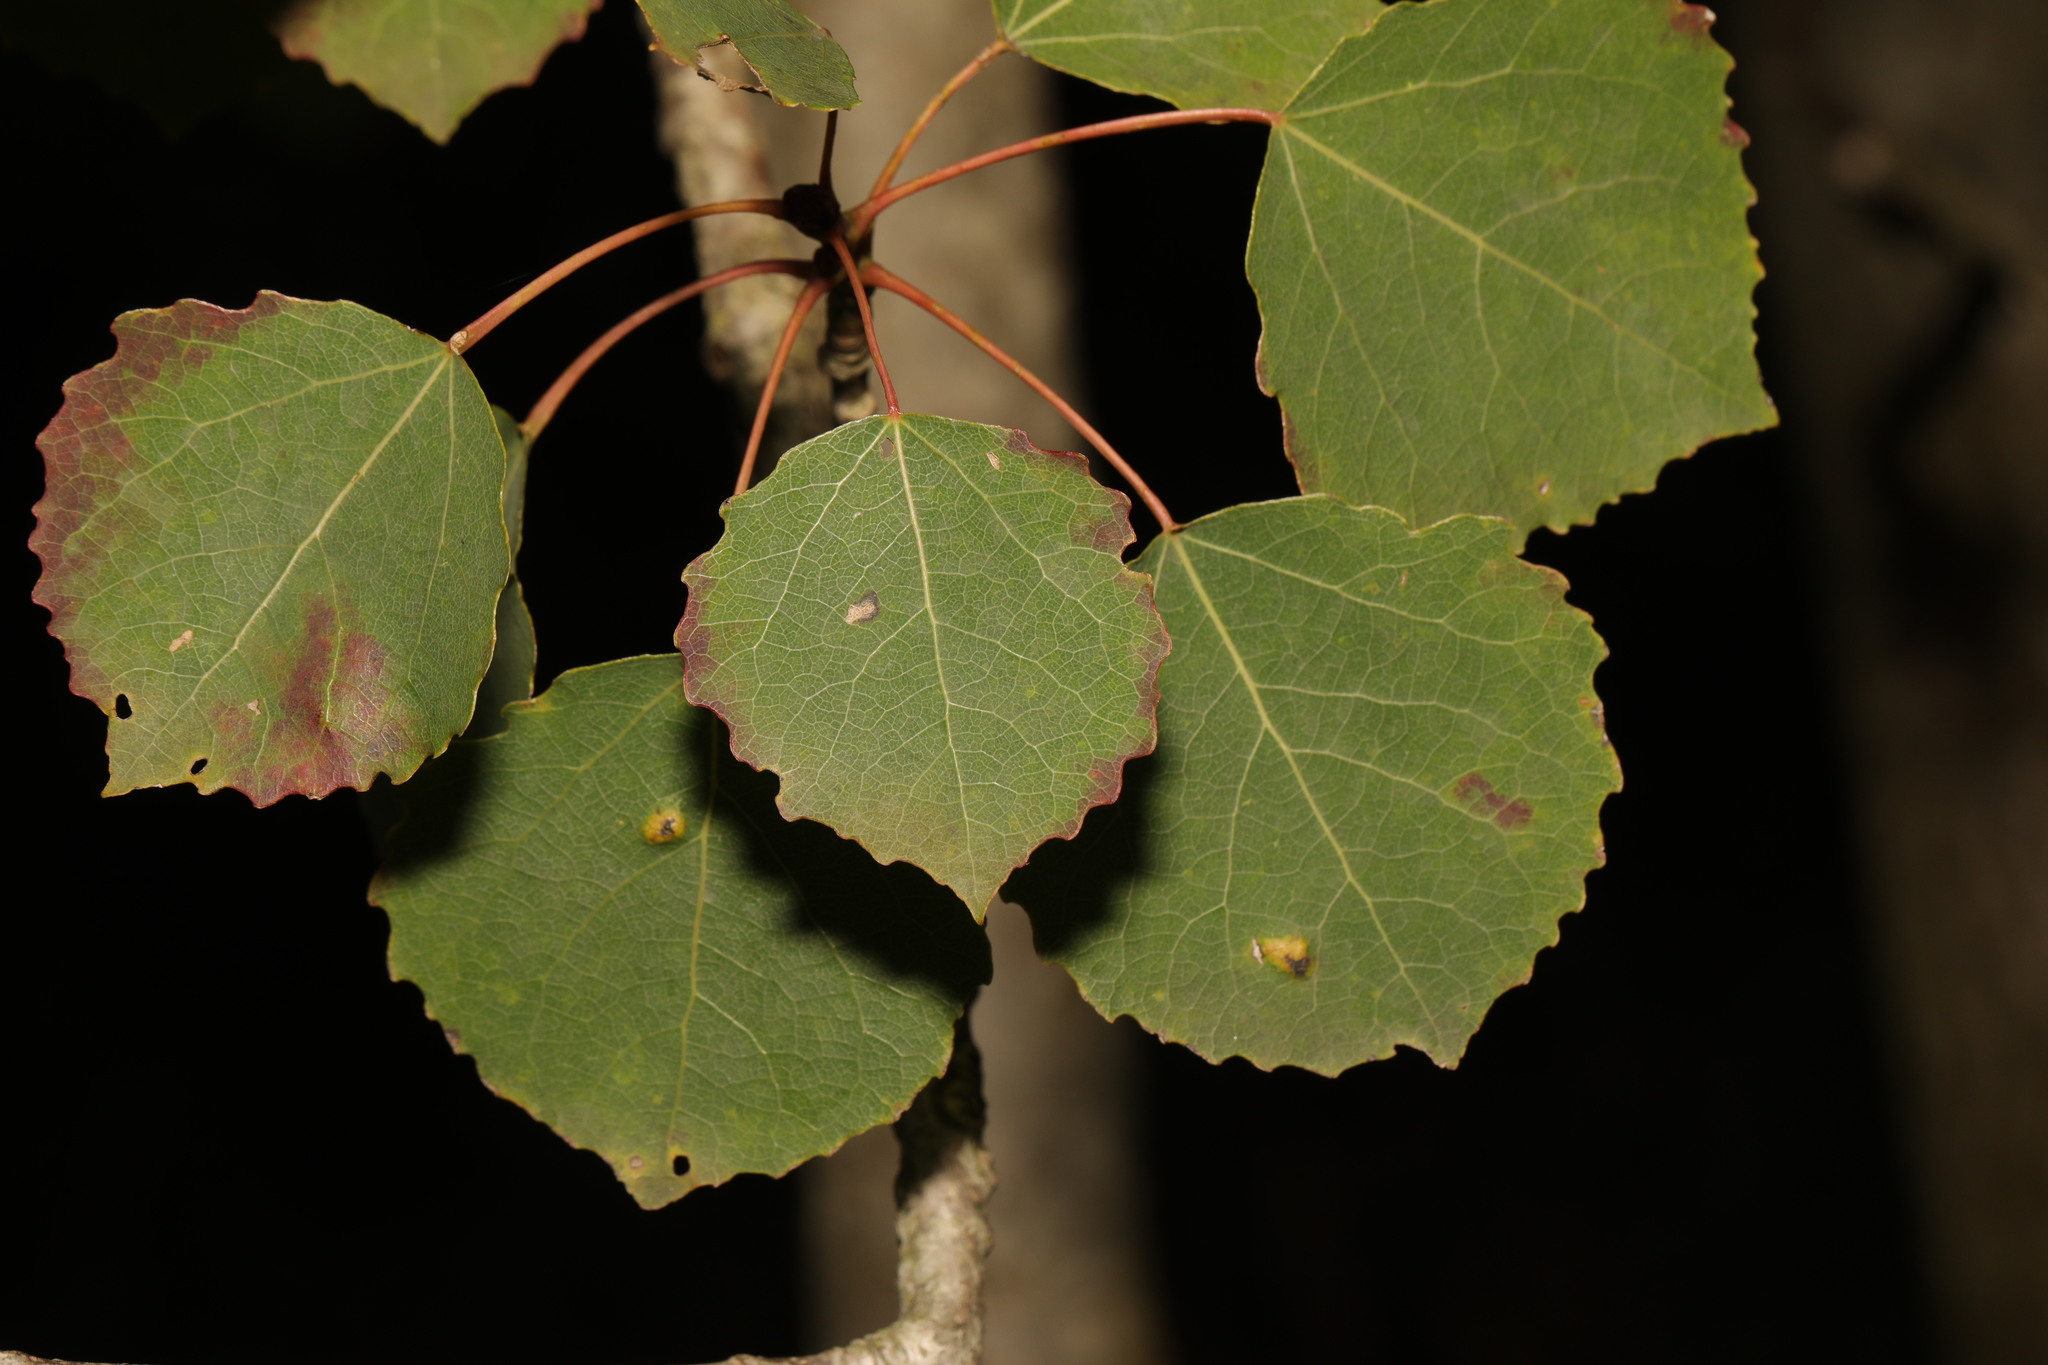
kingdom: Plantae
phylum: Tracheophyta
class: Magnoliopsida
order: Malpighiales
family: Salicaceae
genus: Populus
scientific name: Populus tremula
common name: European aspen
